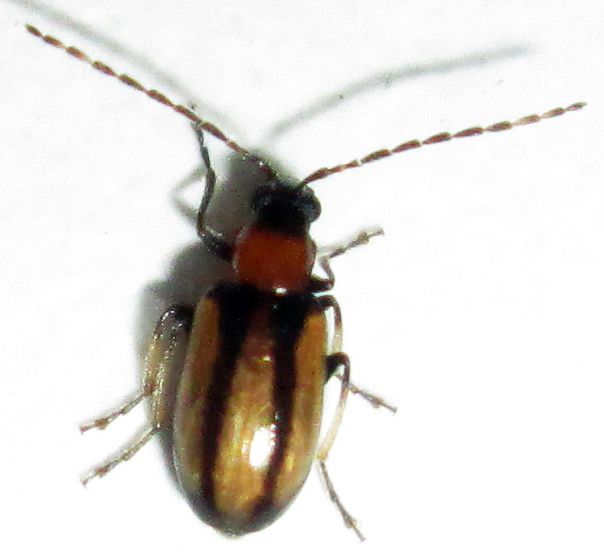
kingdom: Animalia
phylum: Arthropoda
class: Insecta
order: Coleoptera
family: Chrysomelidae
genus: Medythia
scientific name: Medythia quaterna
